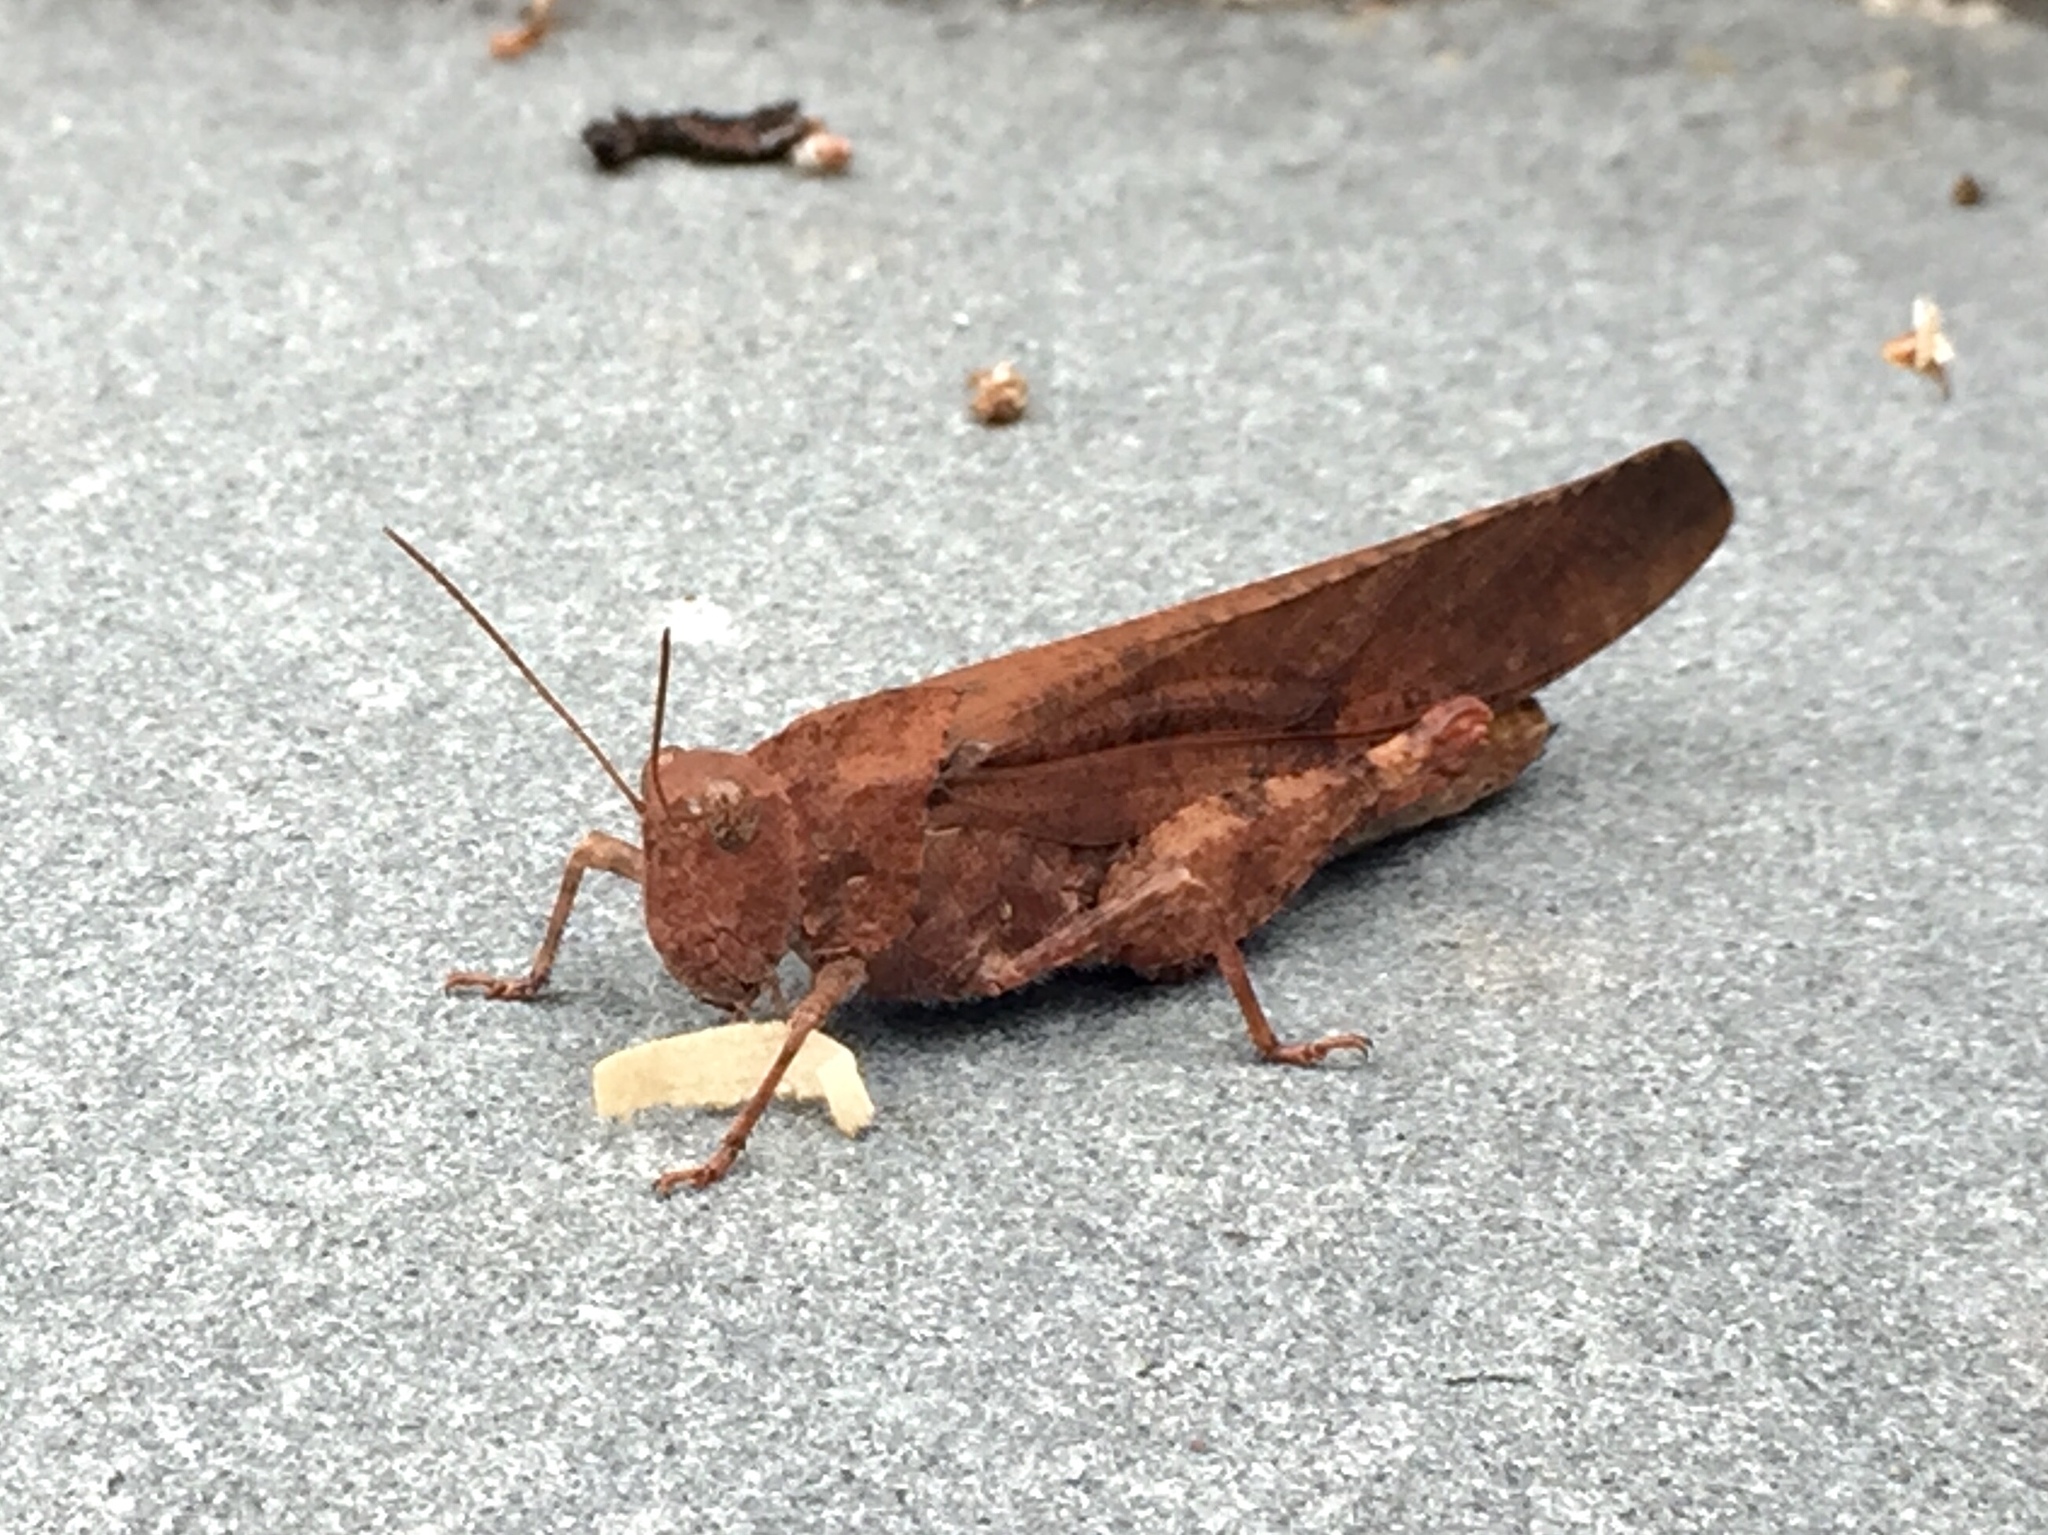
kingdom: Animalia
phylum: Arthropoda
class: Insecta
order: Orthoptera
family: Acrididae
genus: Dissosteira
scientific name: Dissosteira carolina
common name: Carolina grasshopper
